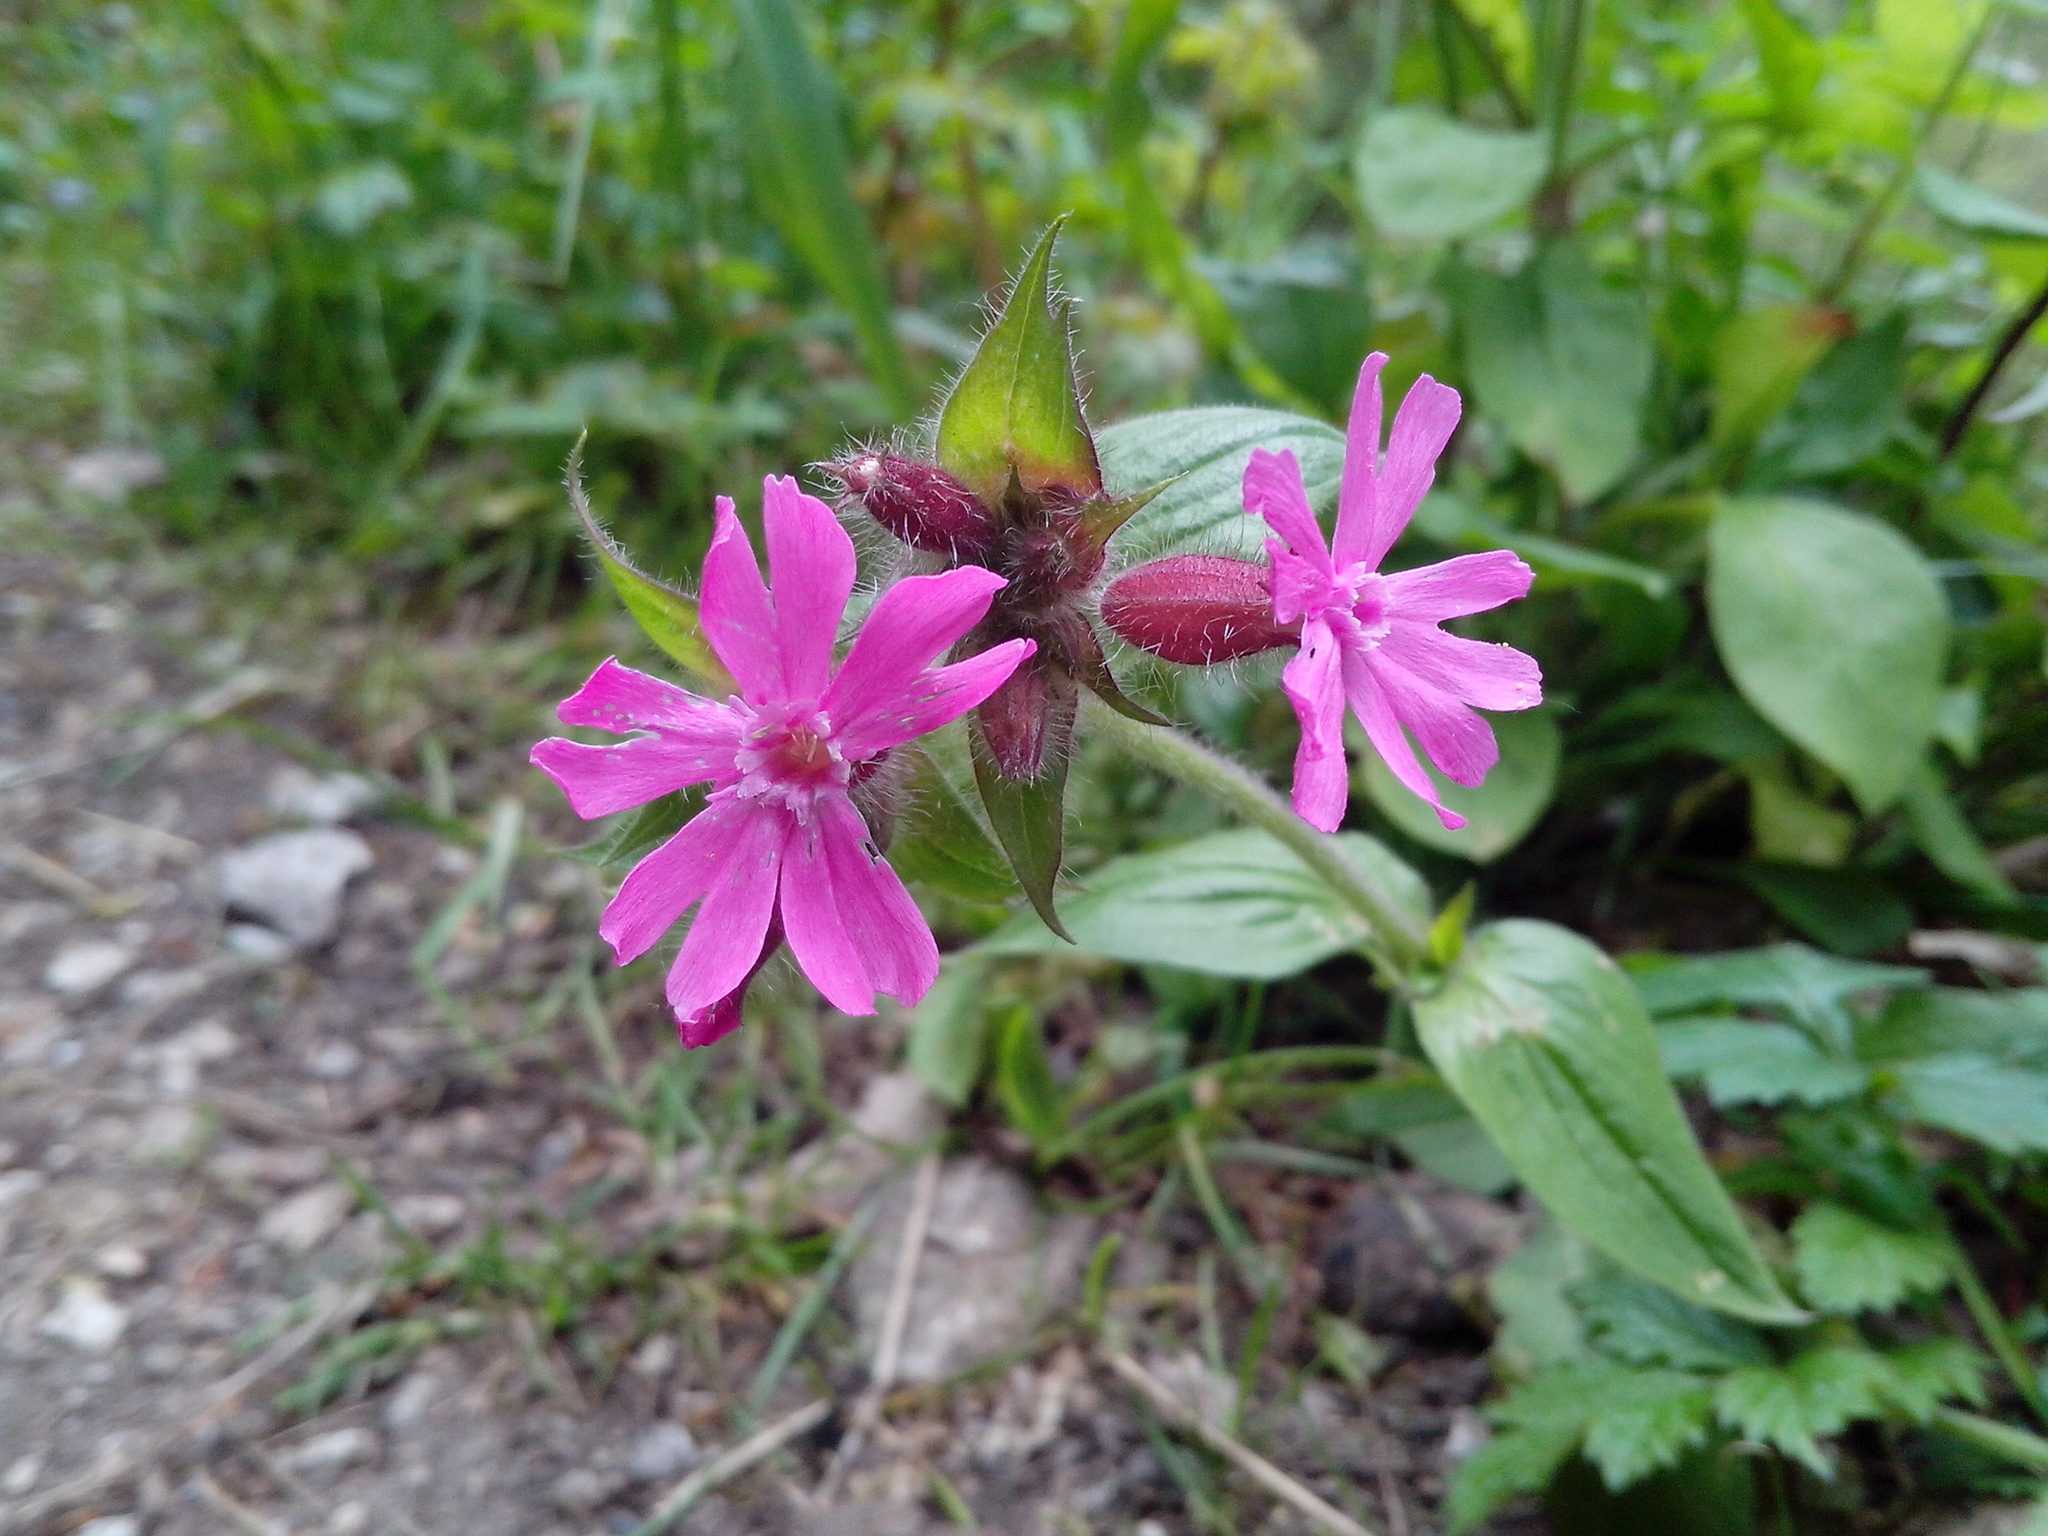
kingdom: Plantae
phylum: Tracheophyta
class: Magnoliopsida
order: Caryophyllales
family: Caryophyllaceae
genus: Silene
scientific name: Silene dioica
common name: Red campion
